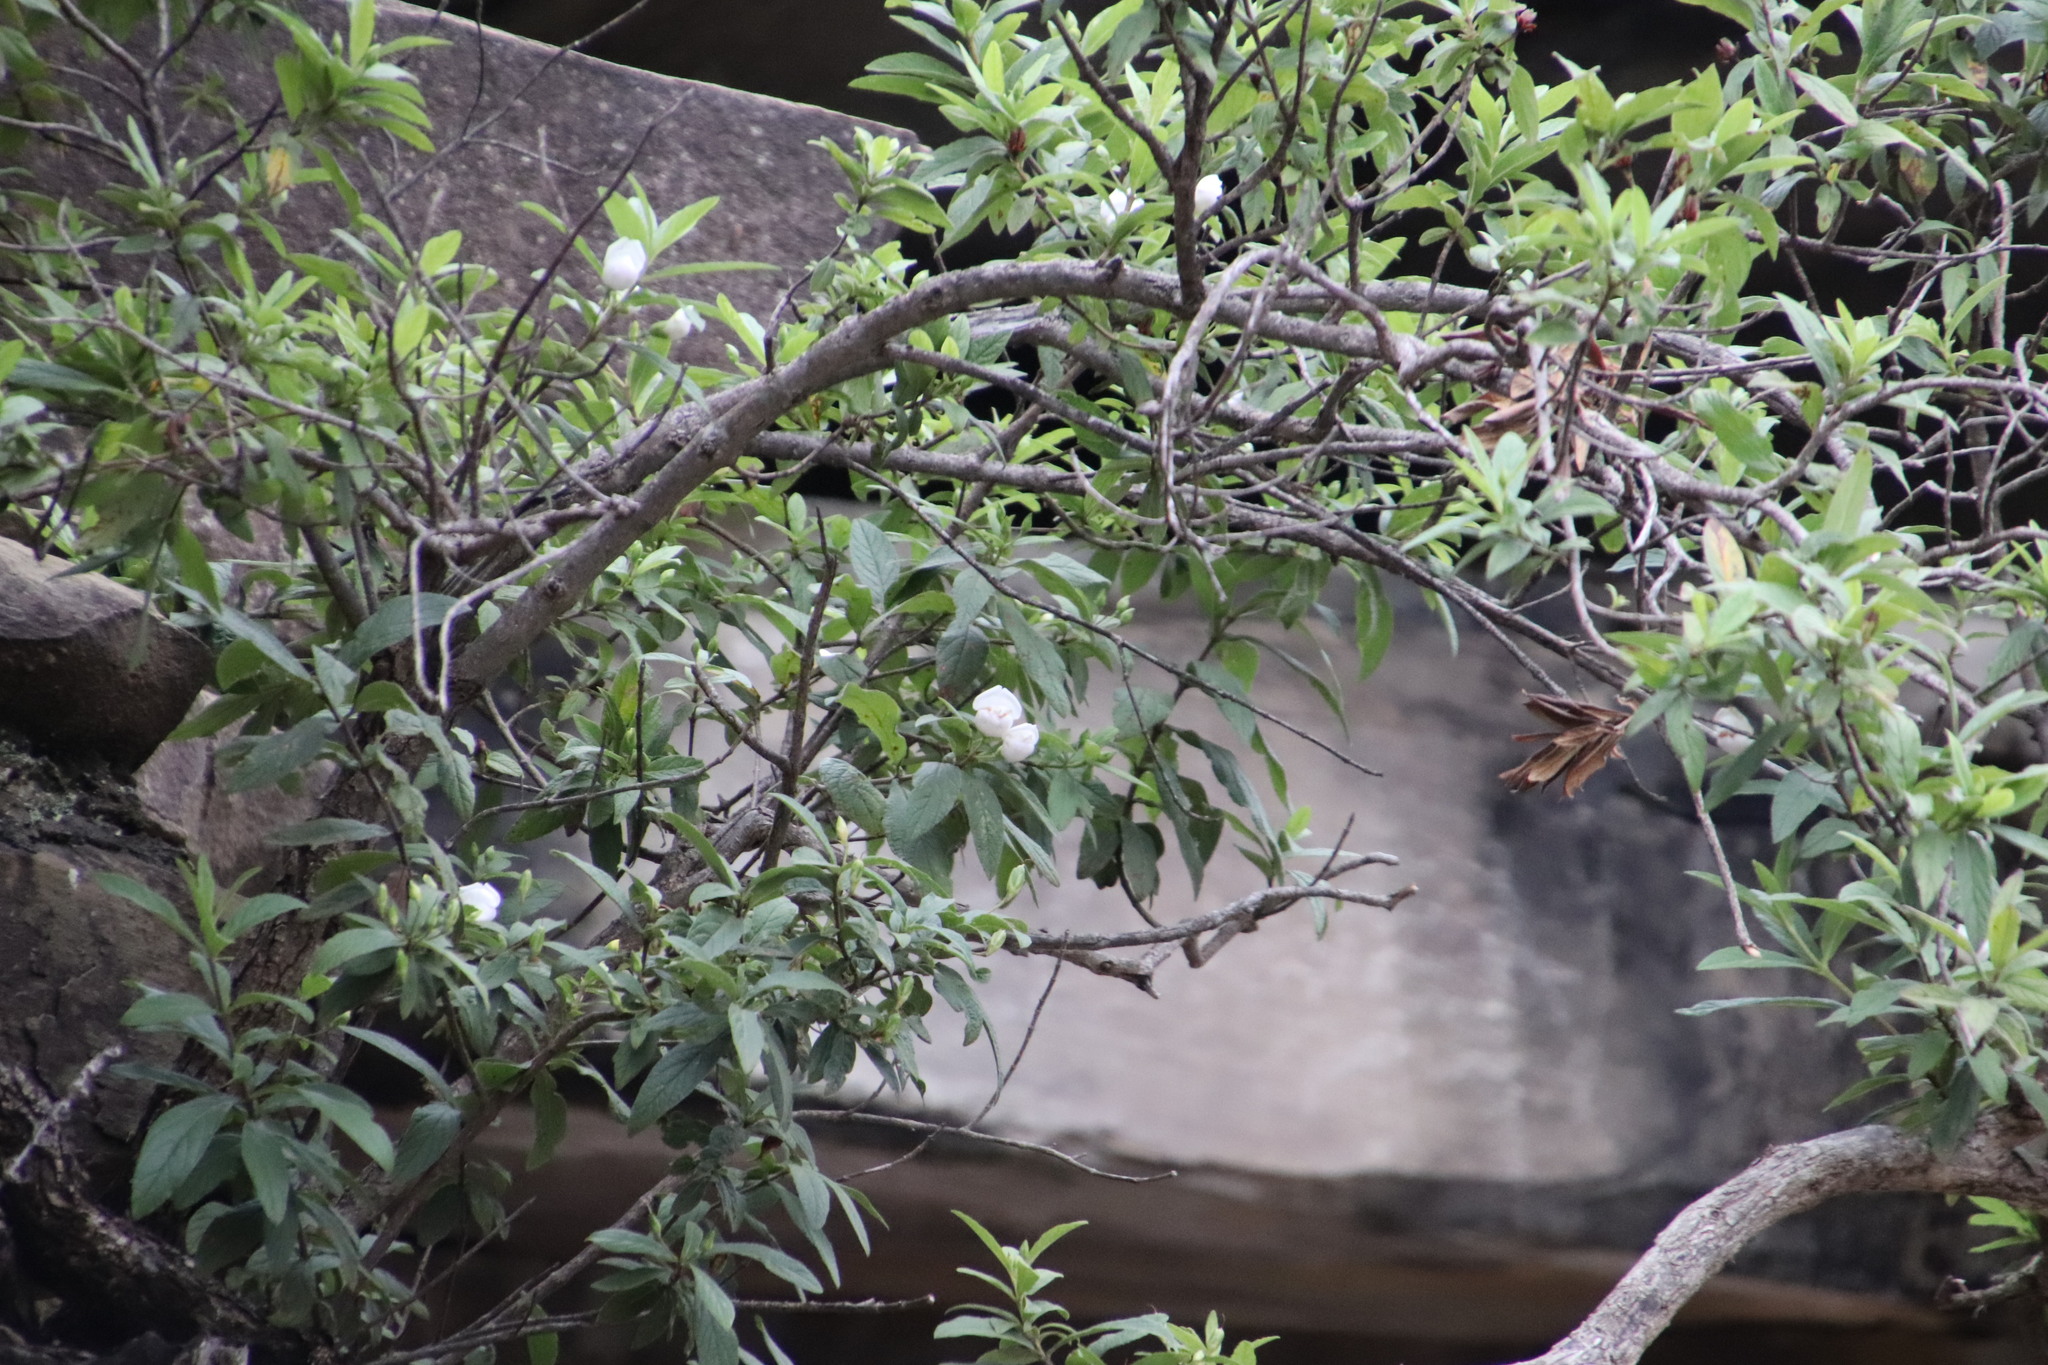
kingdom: Plantae
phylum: Tracheophyta
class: Magnoliopsida
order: Lamiales
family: Stilbaceae
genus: Bowkeria
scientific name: Bowkeria verticillata
